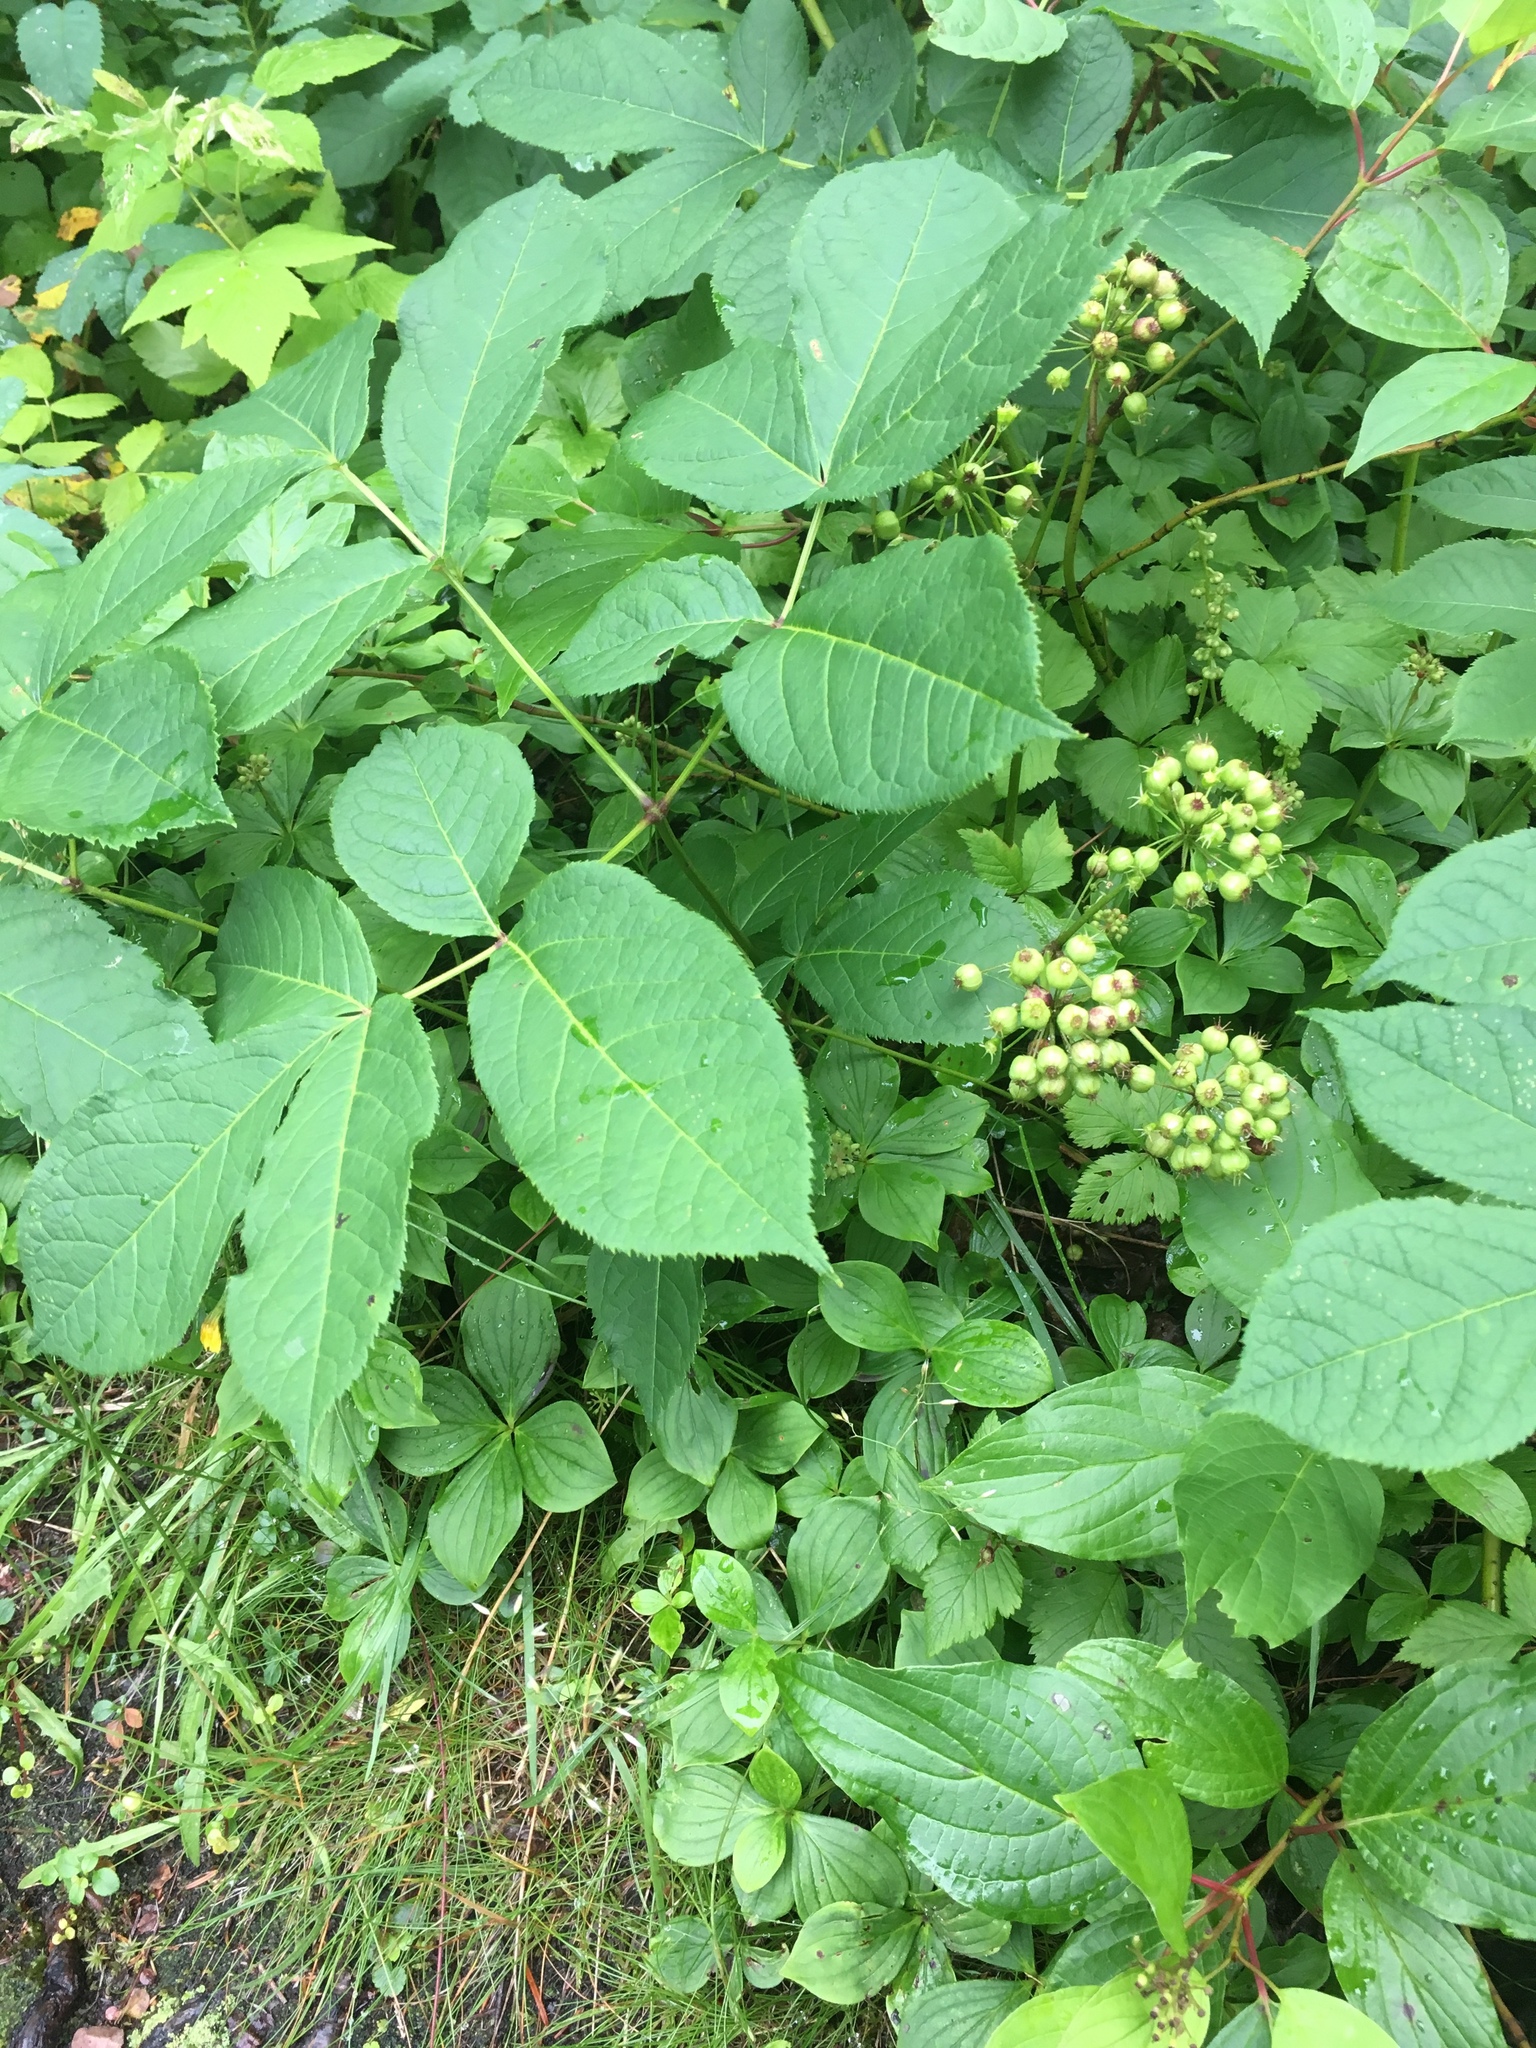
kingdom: Plantae
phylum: Tracheophyta
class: Magnoliopsida
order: Apiales
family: Araliaceae
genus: Aralia
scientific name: Aralia nudicaulis
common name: Wild sarsaparilla
